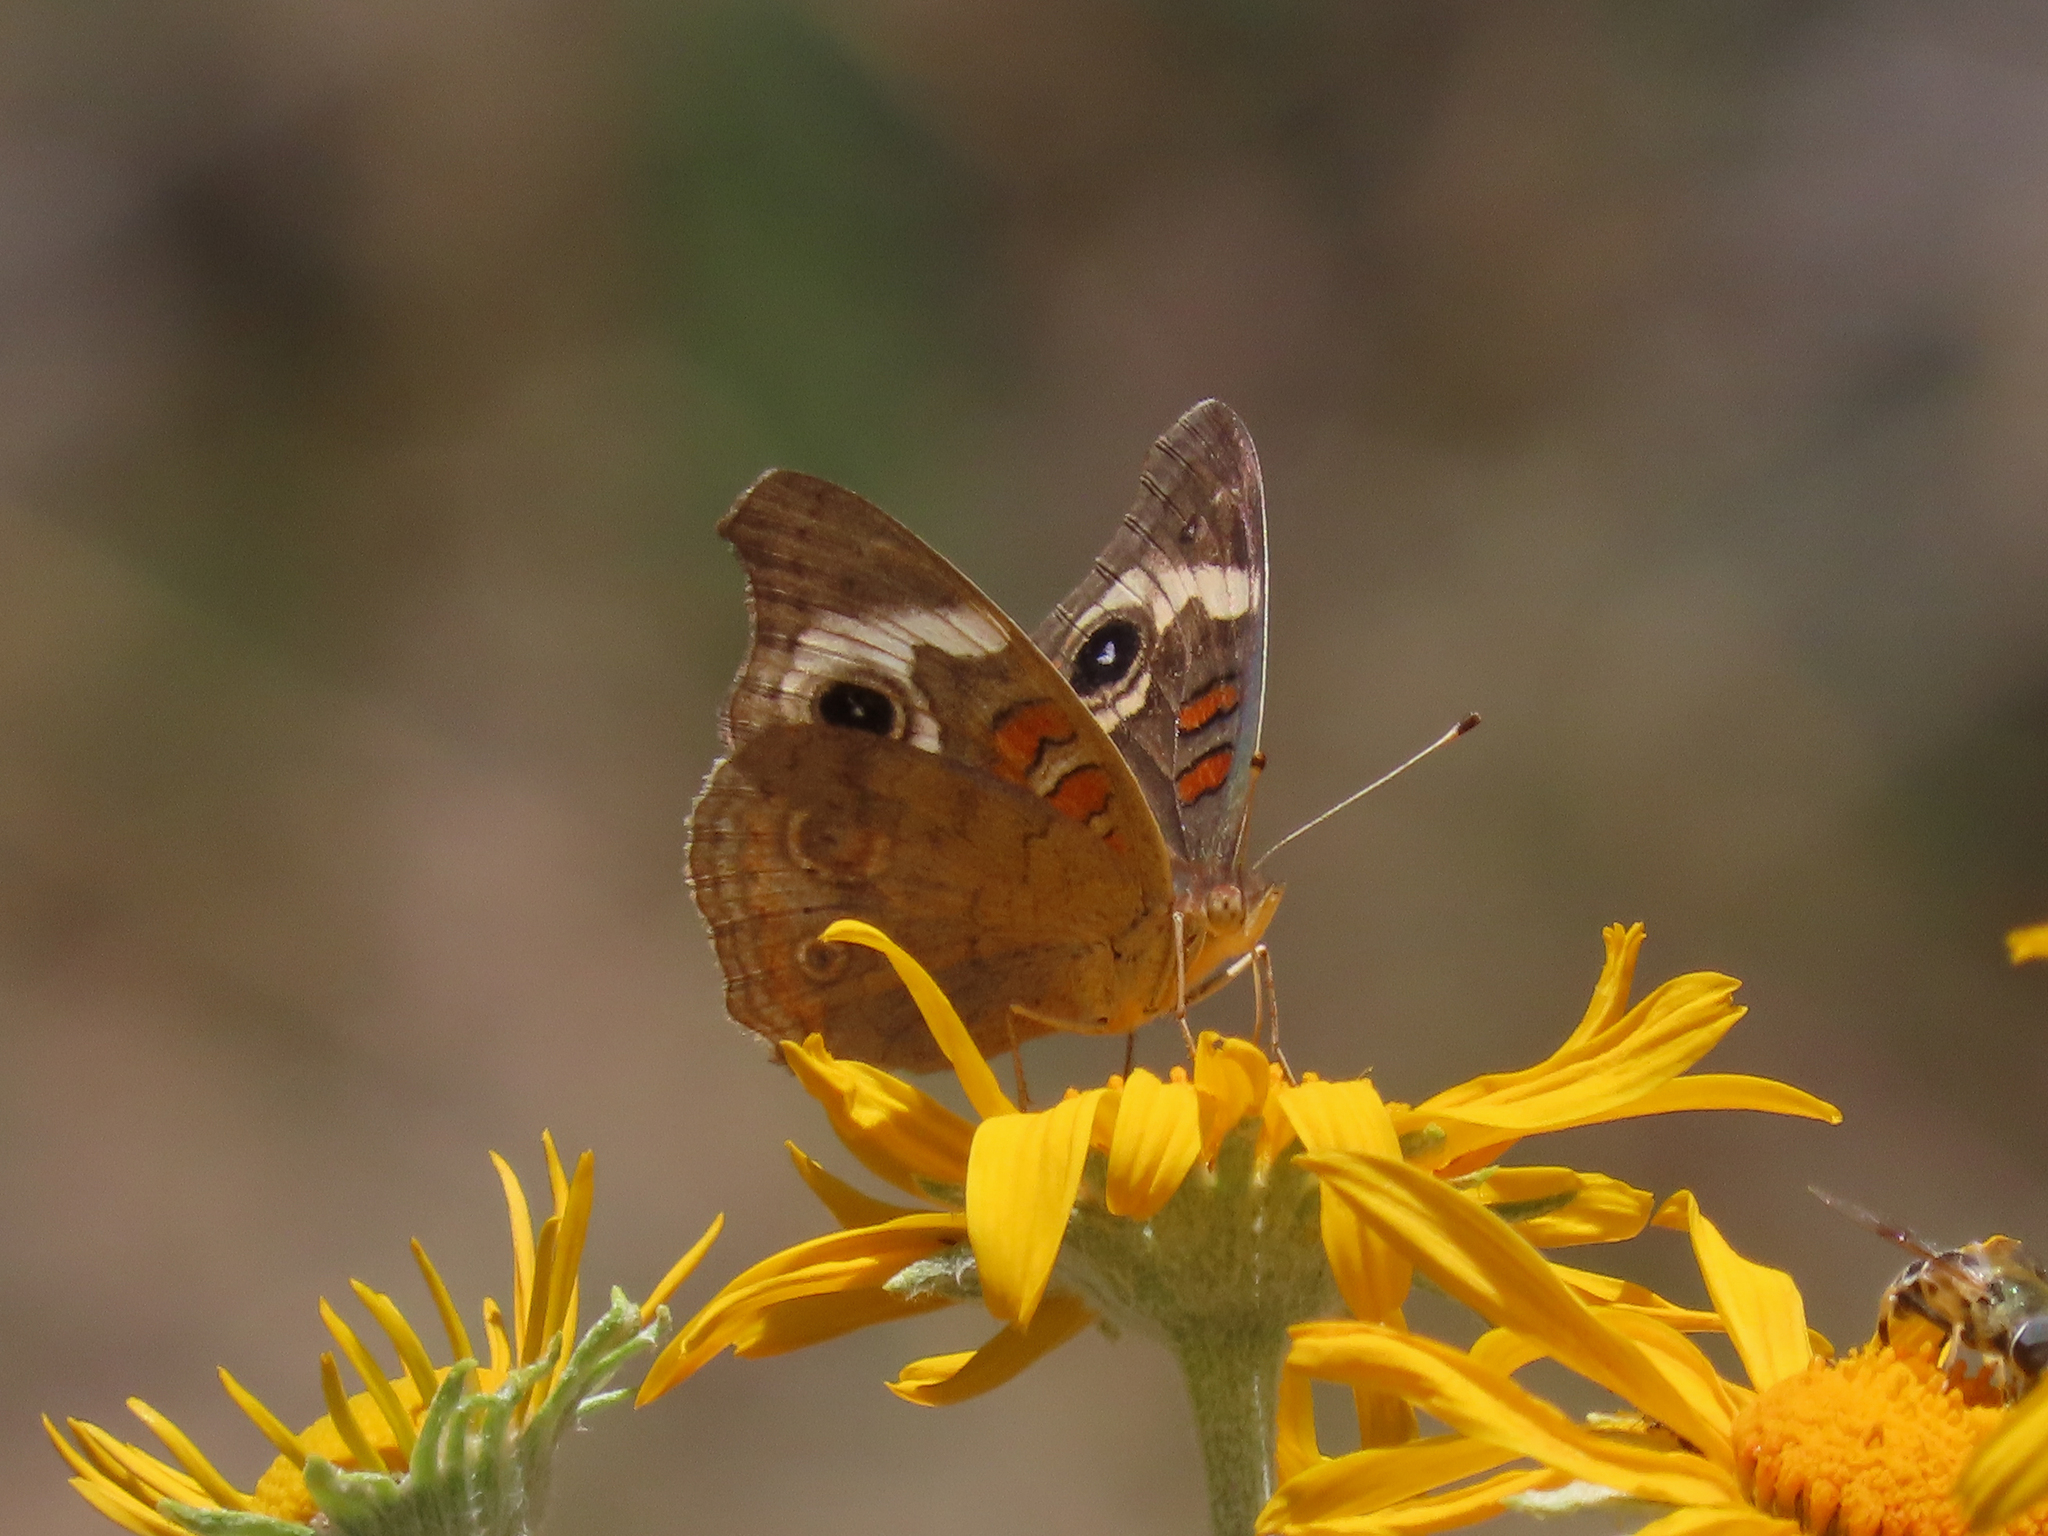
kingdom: Animalia
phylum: Arthropoda
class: Insecta
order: Lepidoptera
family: Nymphalidae
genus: Junonia
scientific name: Junonia grisea
